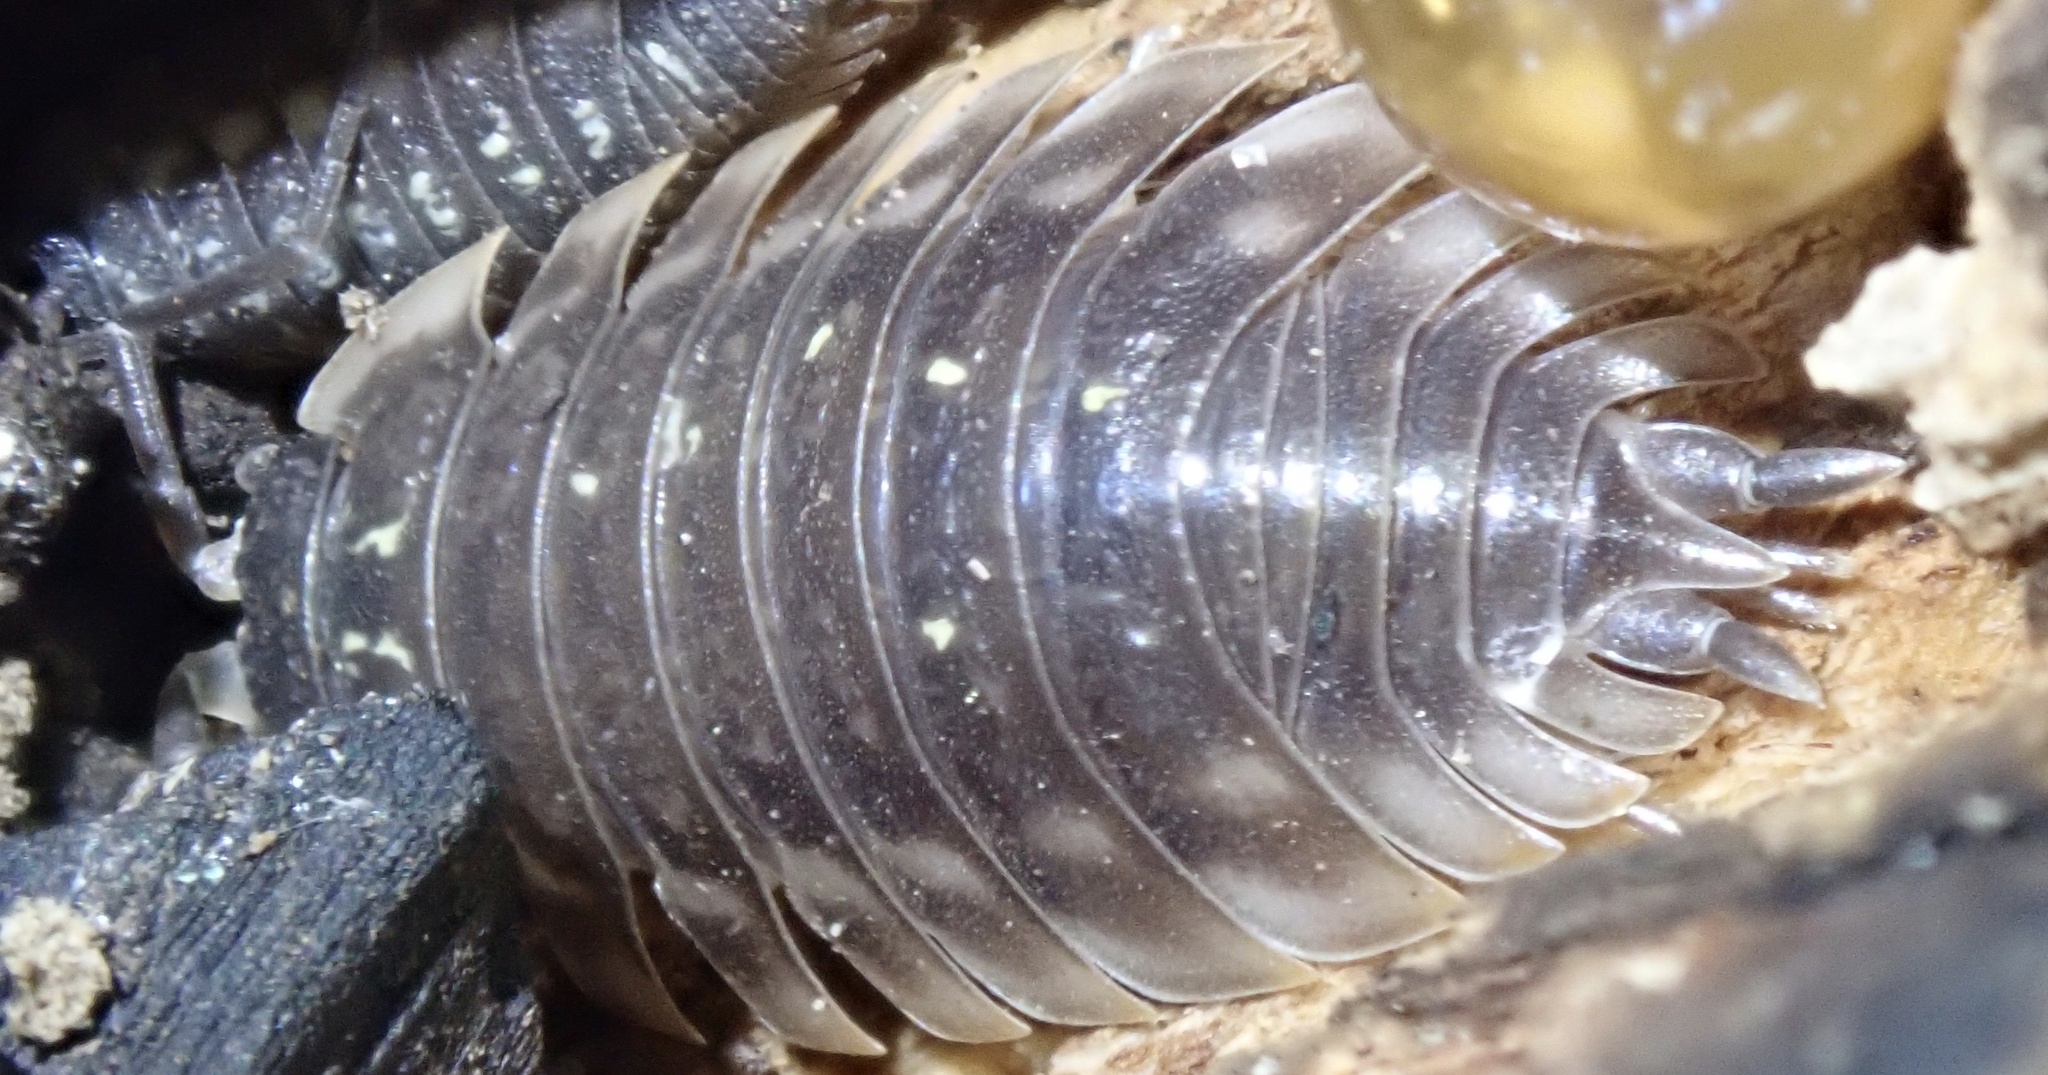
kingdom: Animalia
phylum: Arthropoda
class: Malacostraca
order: Isopoda
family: Oniscidae
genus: Oniscus
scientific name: Oniscus asellus
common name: Common shiny woodlouse
